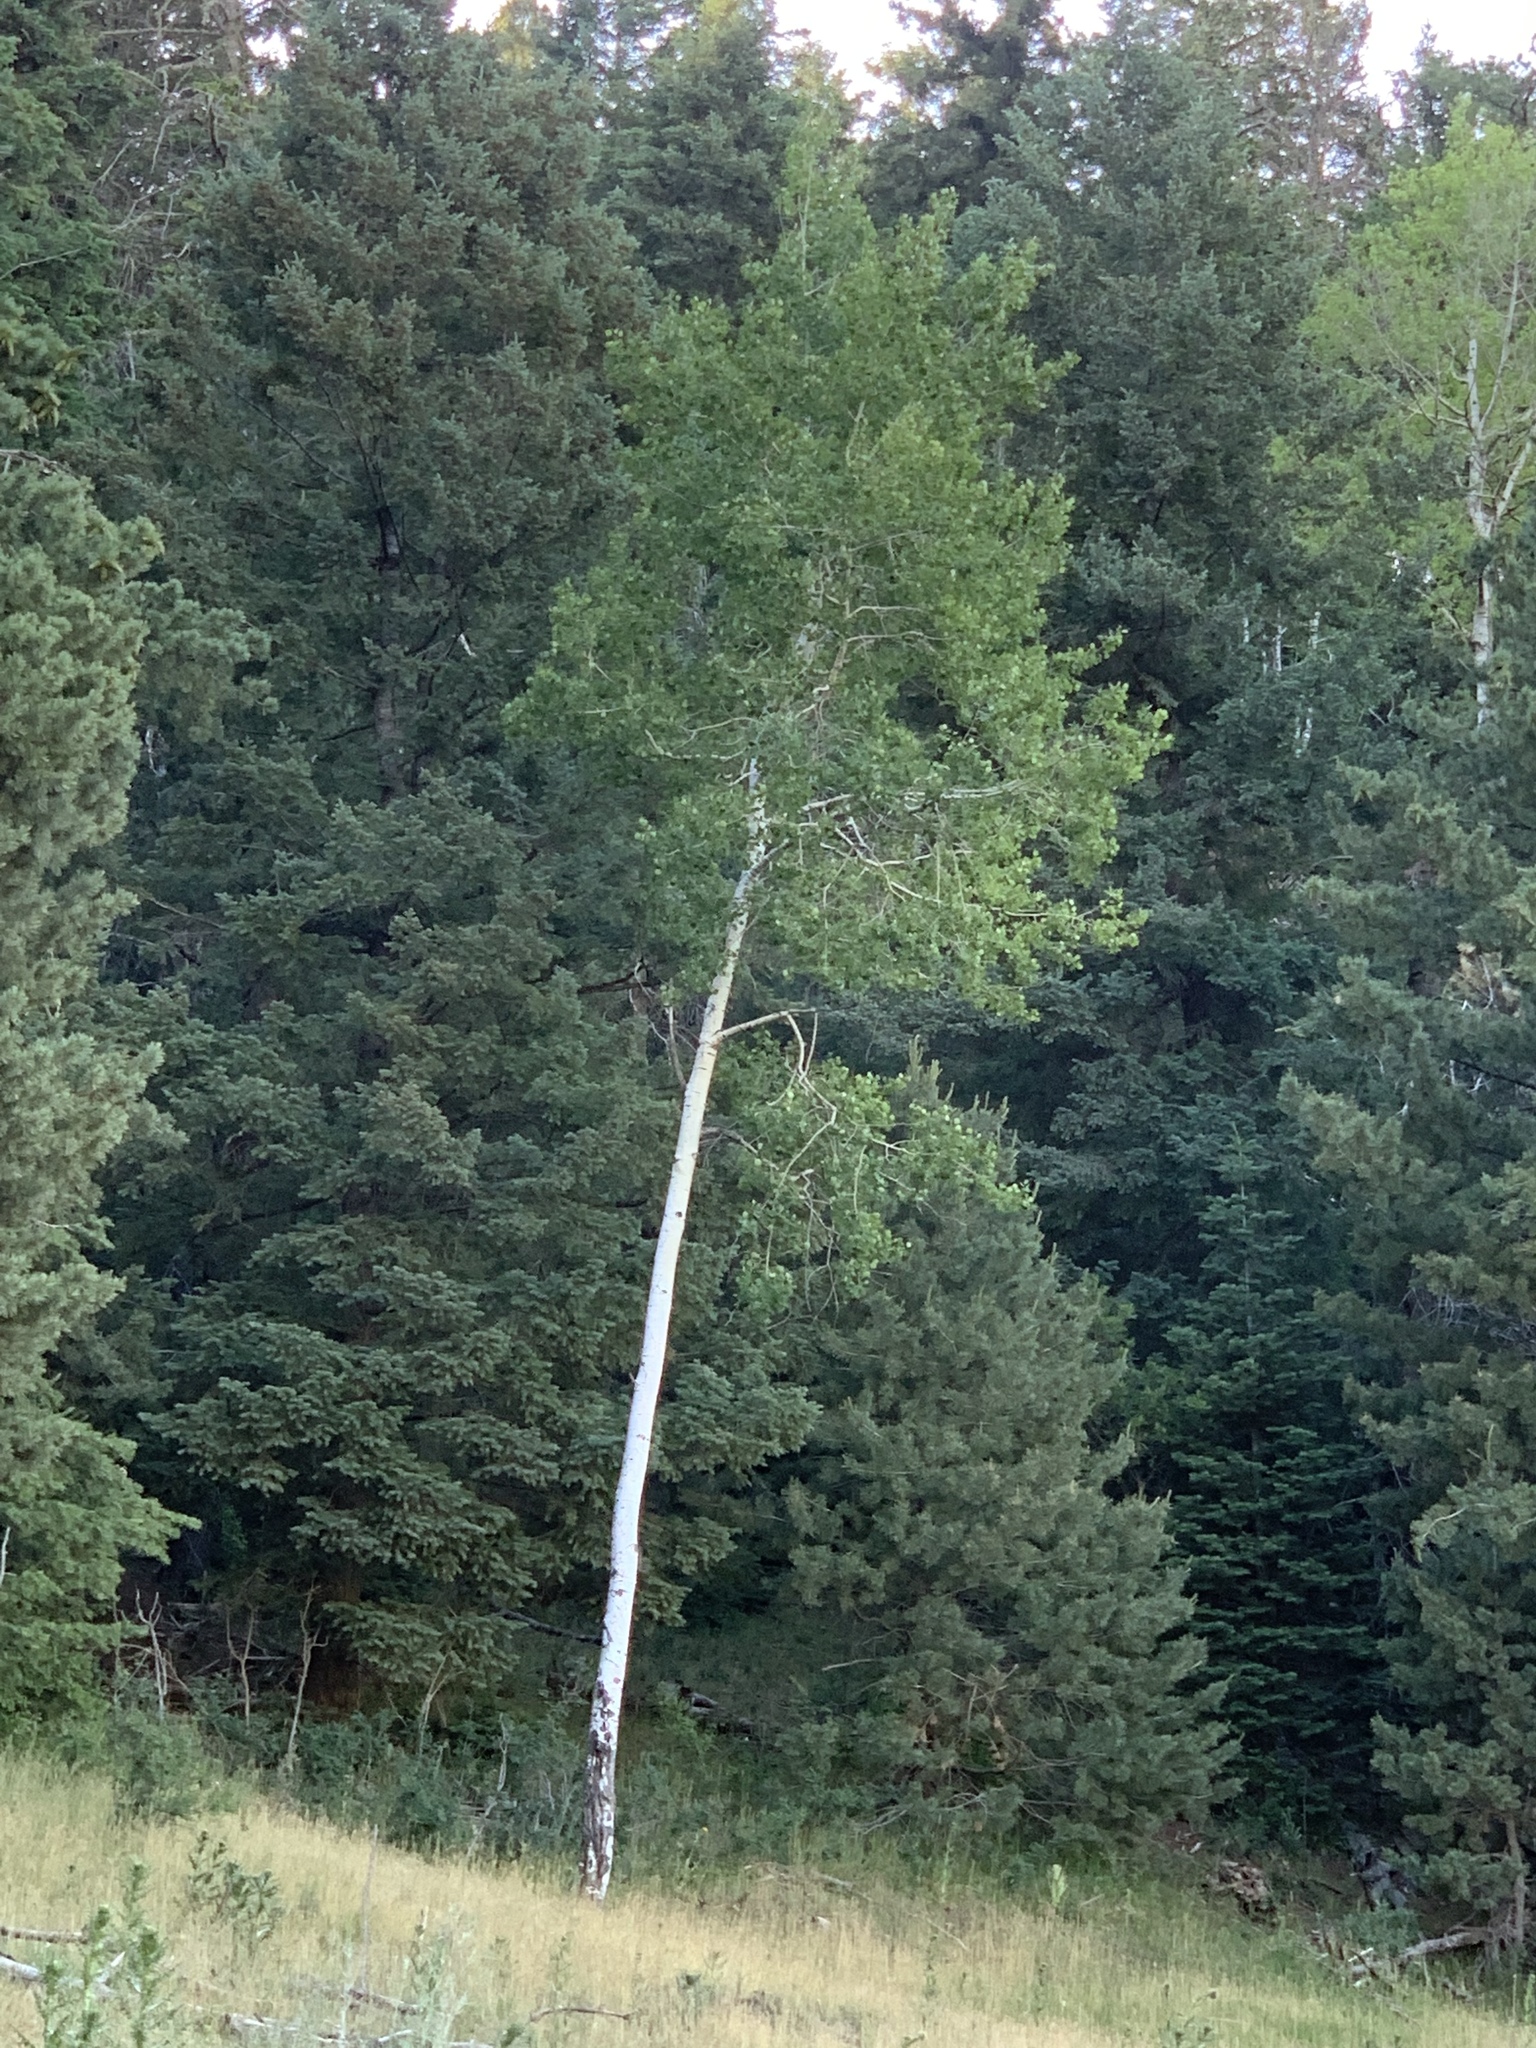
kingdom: Plantae
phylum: Tracheophyta
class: Magnoliopsida
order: Malpighiales
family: Salicaceae
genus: Populus
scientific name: Populus tremuloides
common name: Quaking aspen
